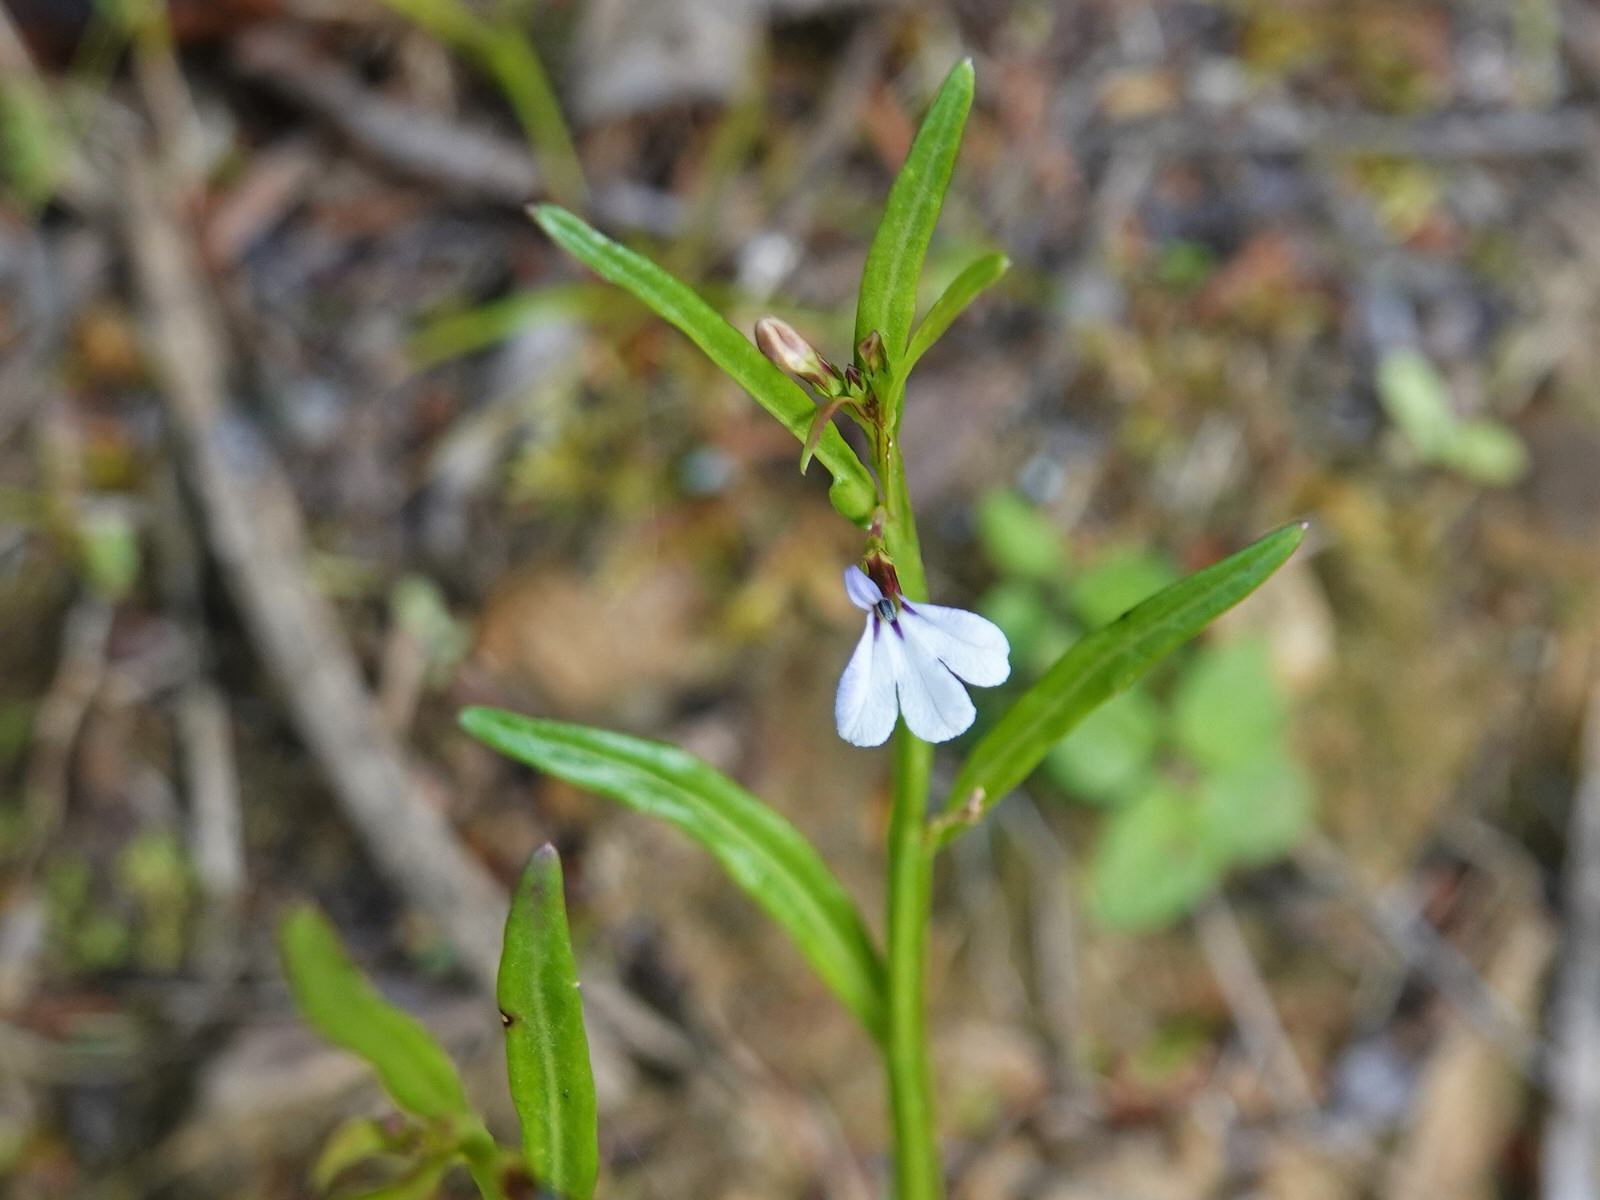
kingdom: Plantae
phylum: Tracheophyta
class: Magnoliopsida
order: Asterales
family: Campanulaceae
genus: Lobelia
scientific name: Lobelia anceps
